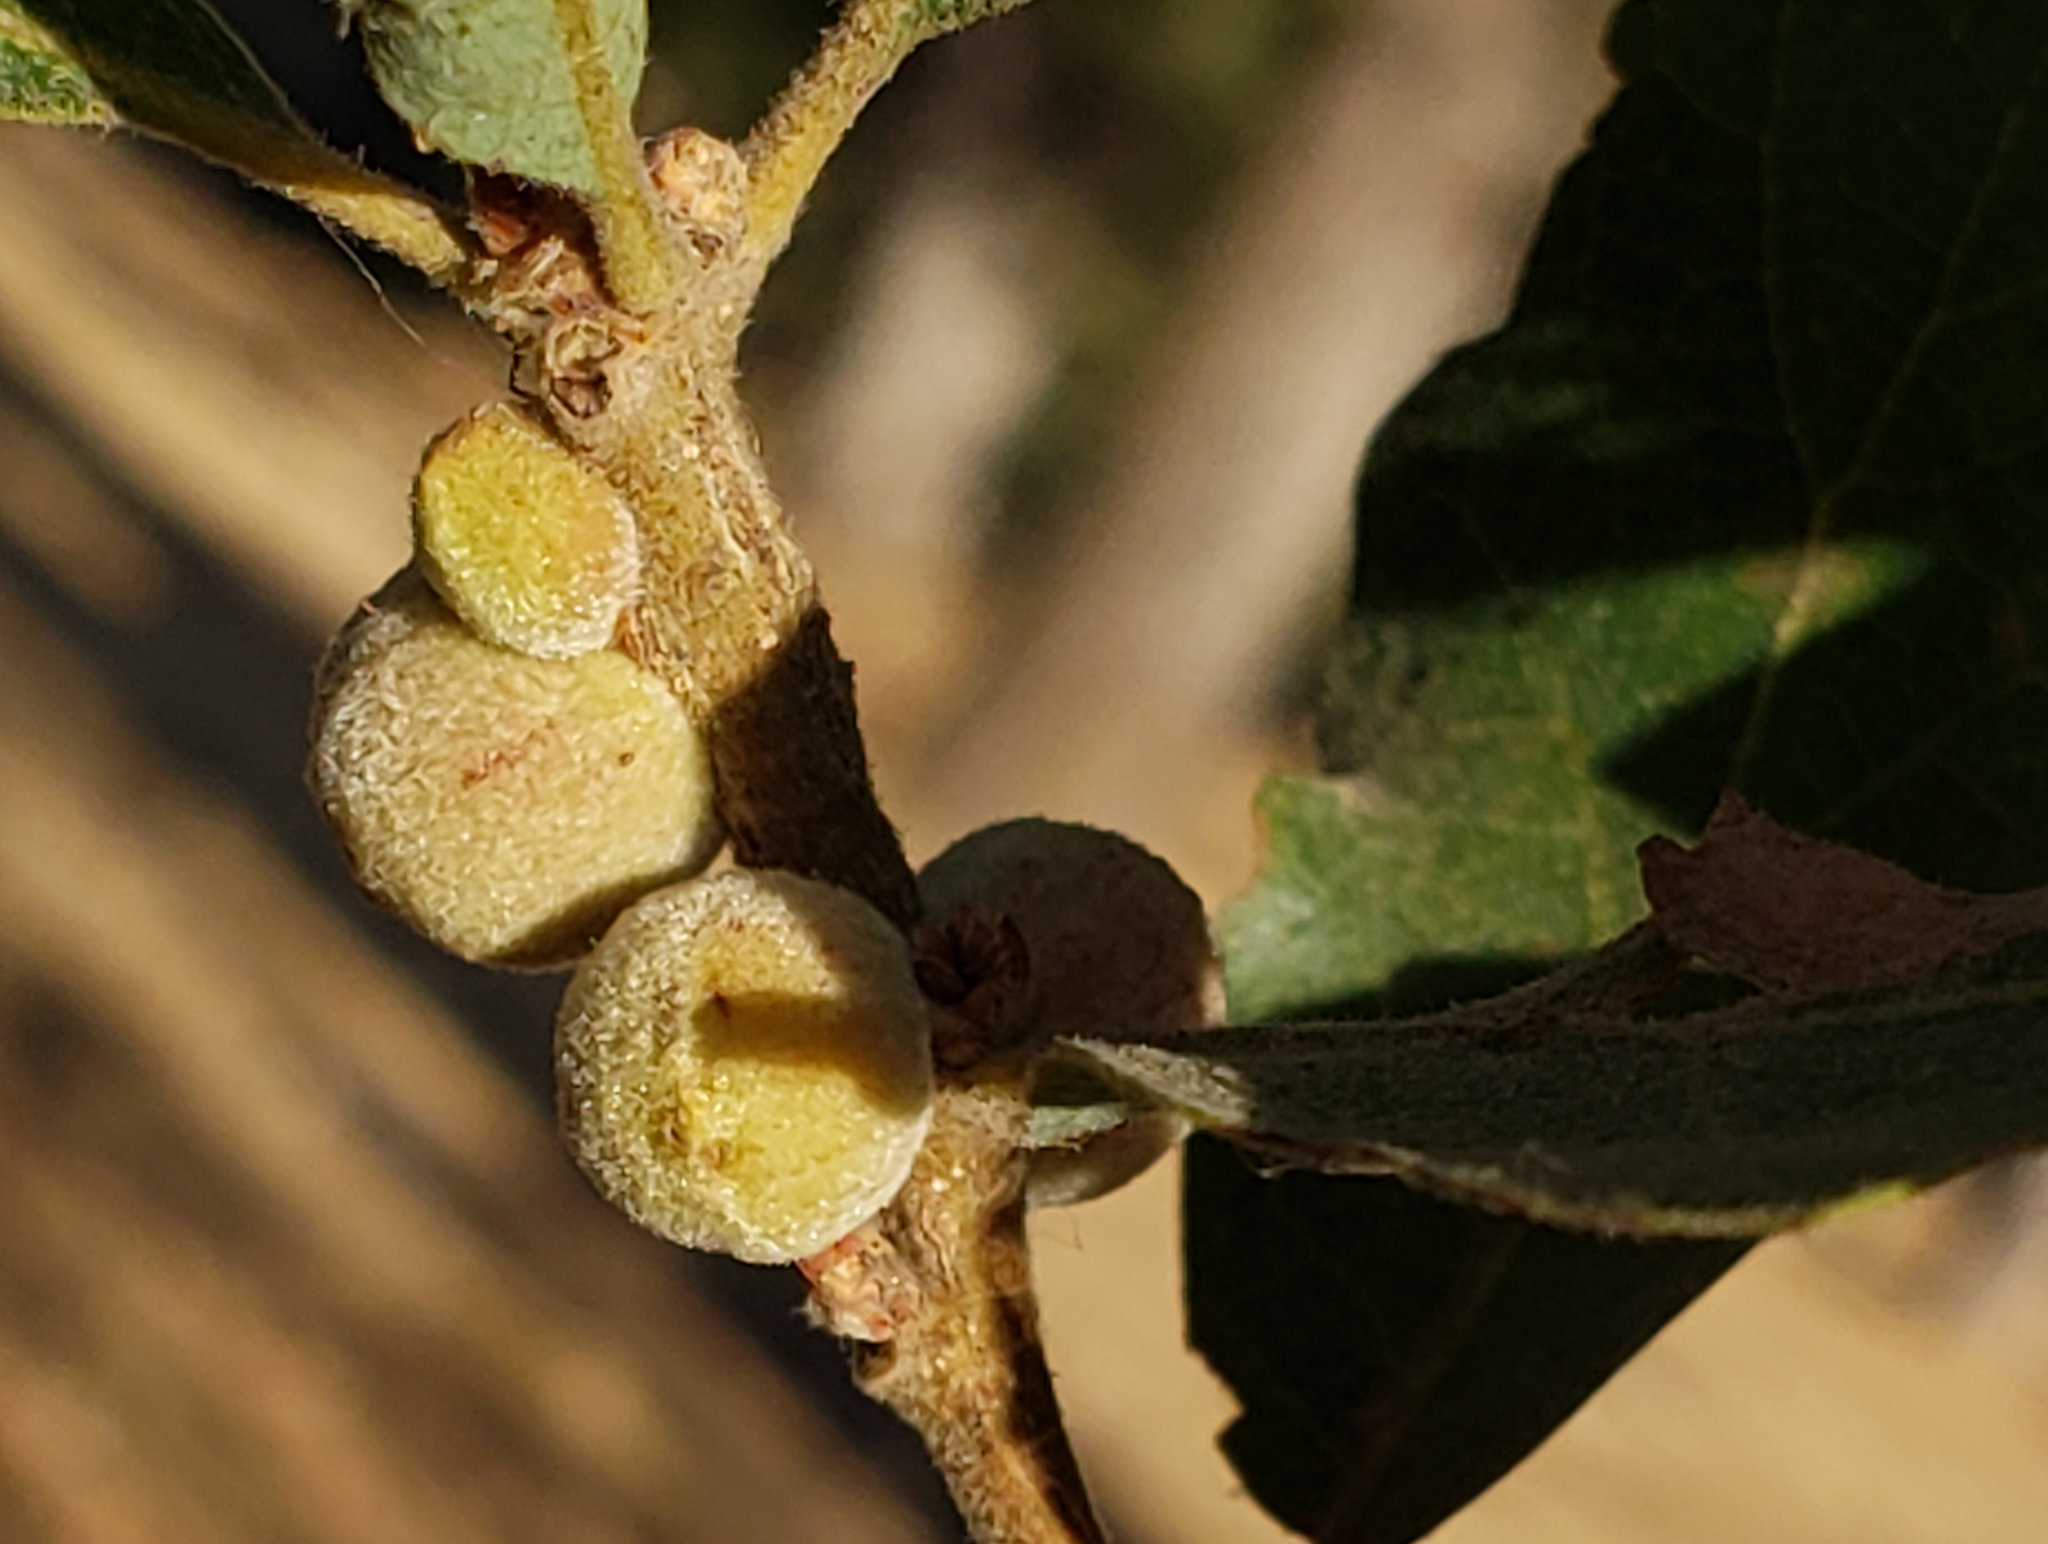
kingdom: Animalia
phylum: Arthropoda
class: Insecta
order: Hymenoptera
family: Cynipidae
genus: Disholcaspis
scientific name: Disholcaspis
